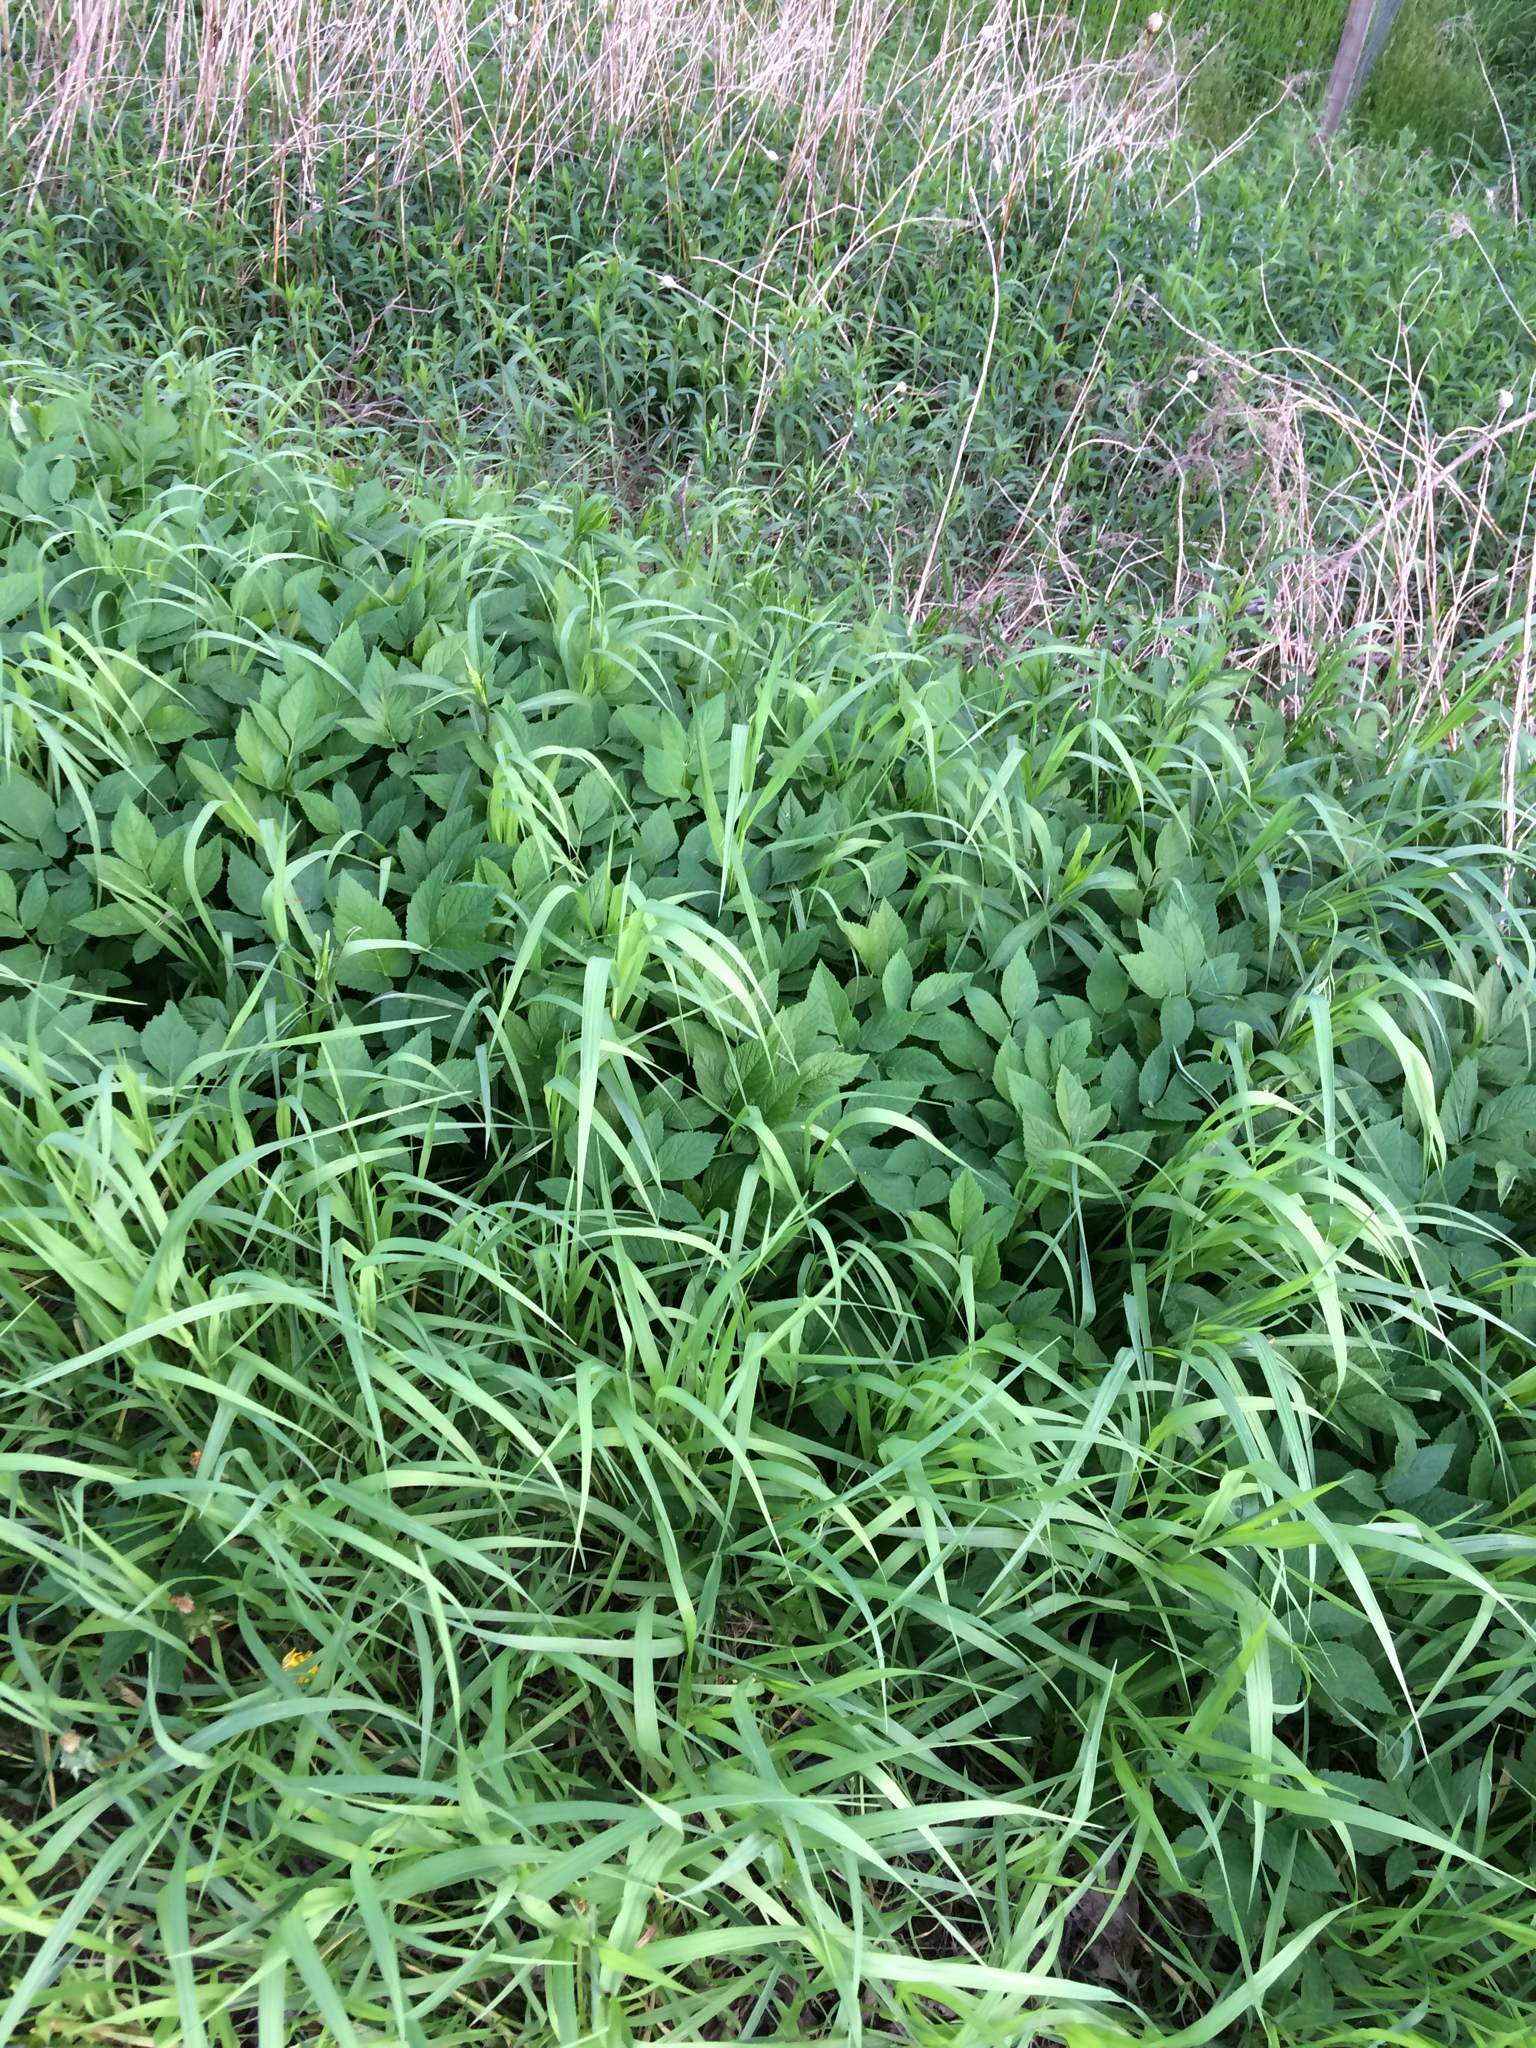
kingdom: Plantae
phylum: Tracheophyta
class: Magnoliopsida
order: Apiales
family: Apiaceae
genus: Aegopodium
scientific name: Aegopodium podagraria
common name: Ground-elder
